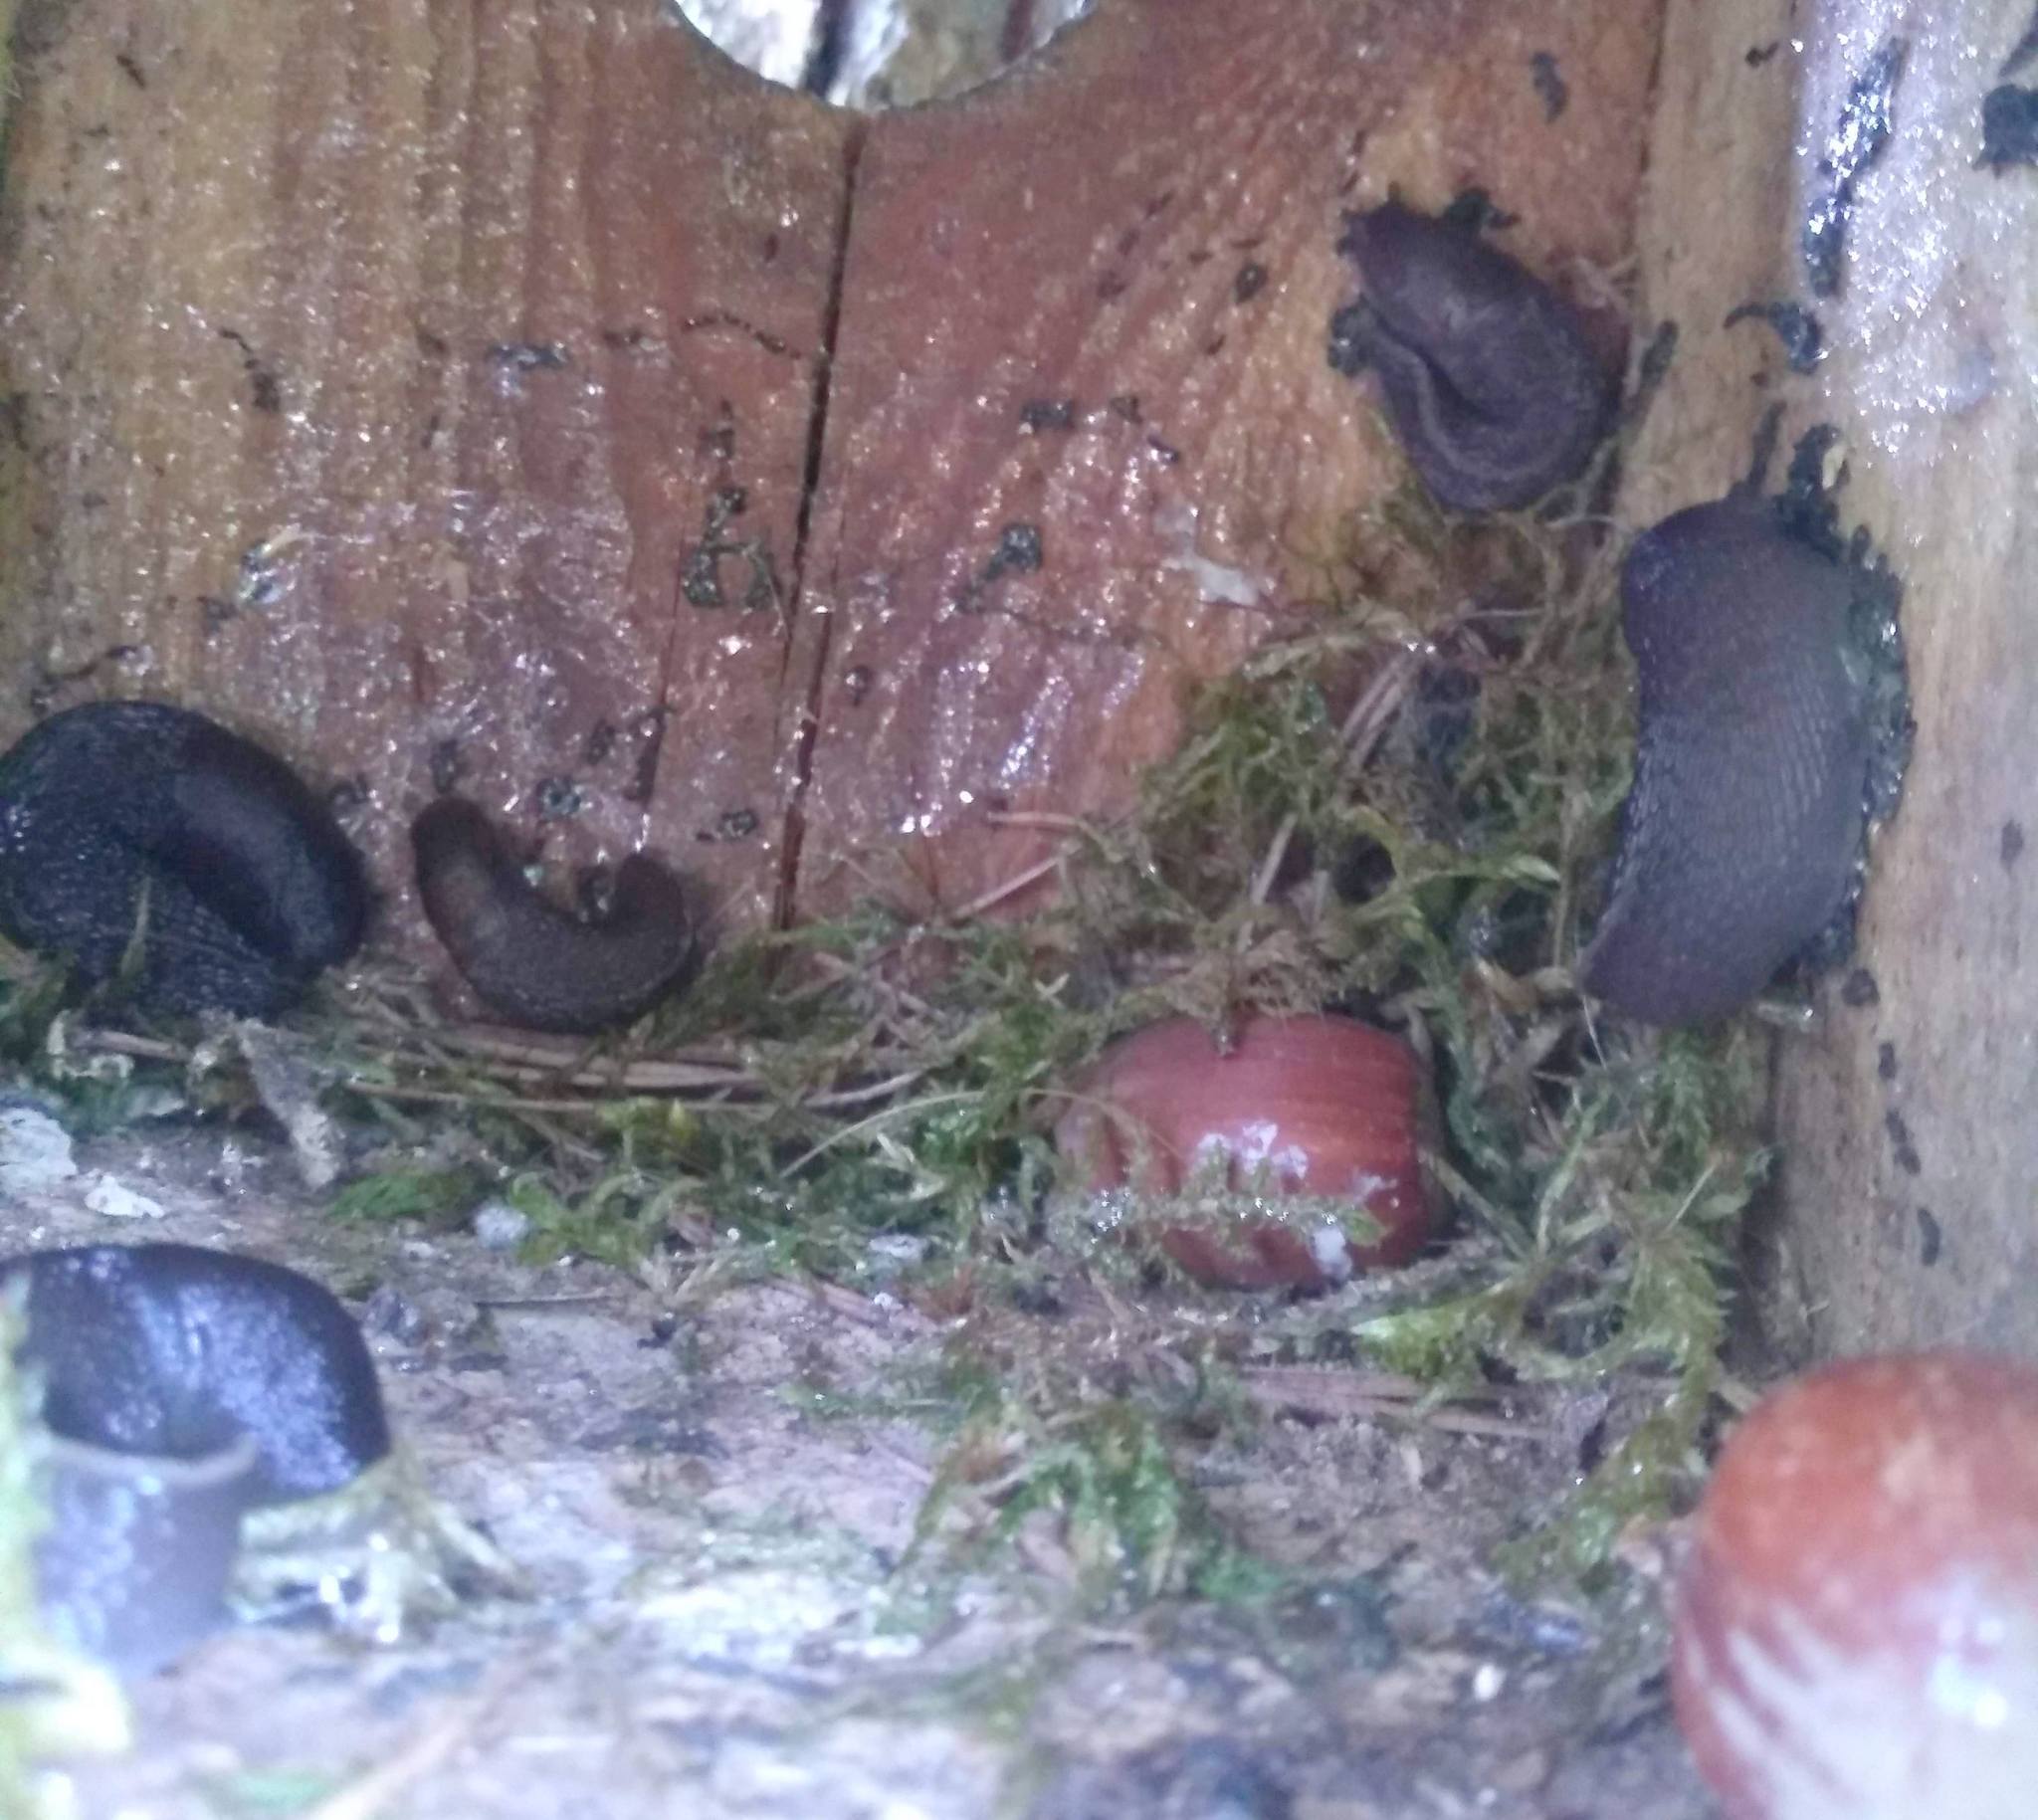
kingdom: Animalia
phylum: Mollusca
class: Gastropoda
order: Stylommatophora
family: Limacidae
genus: Limax
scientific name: Limax cinereoniger
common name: Ash-black slug
